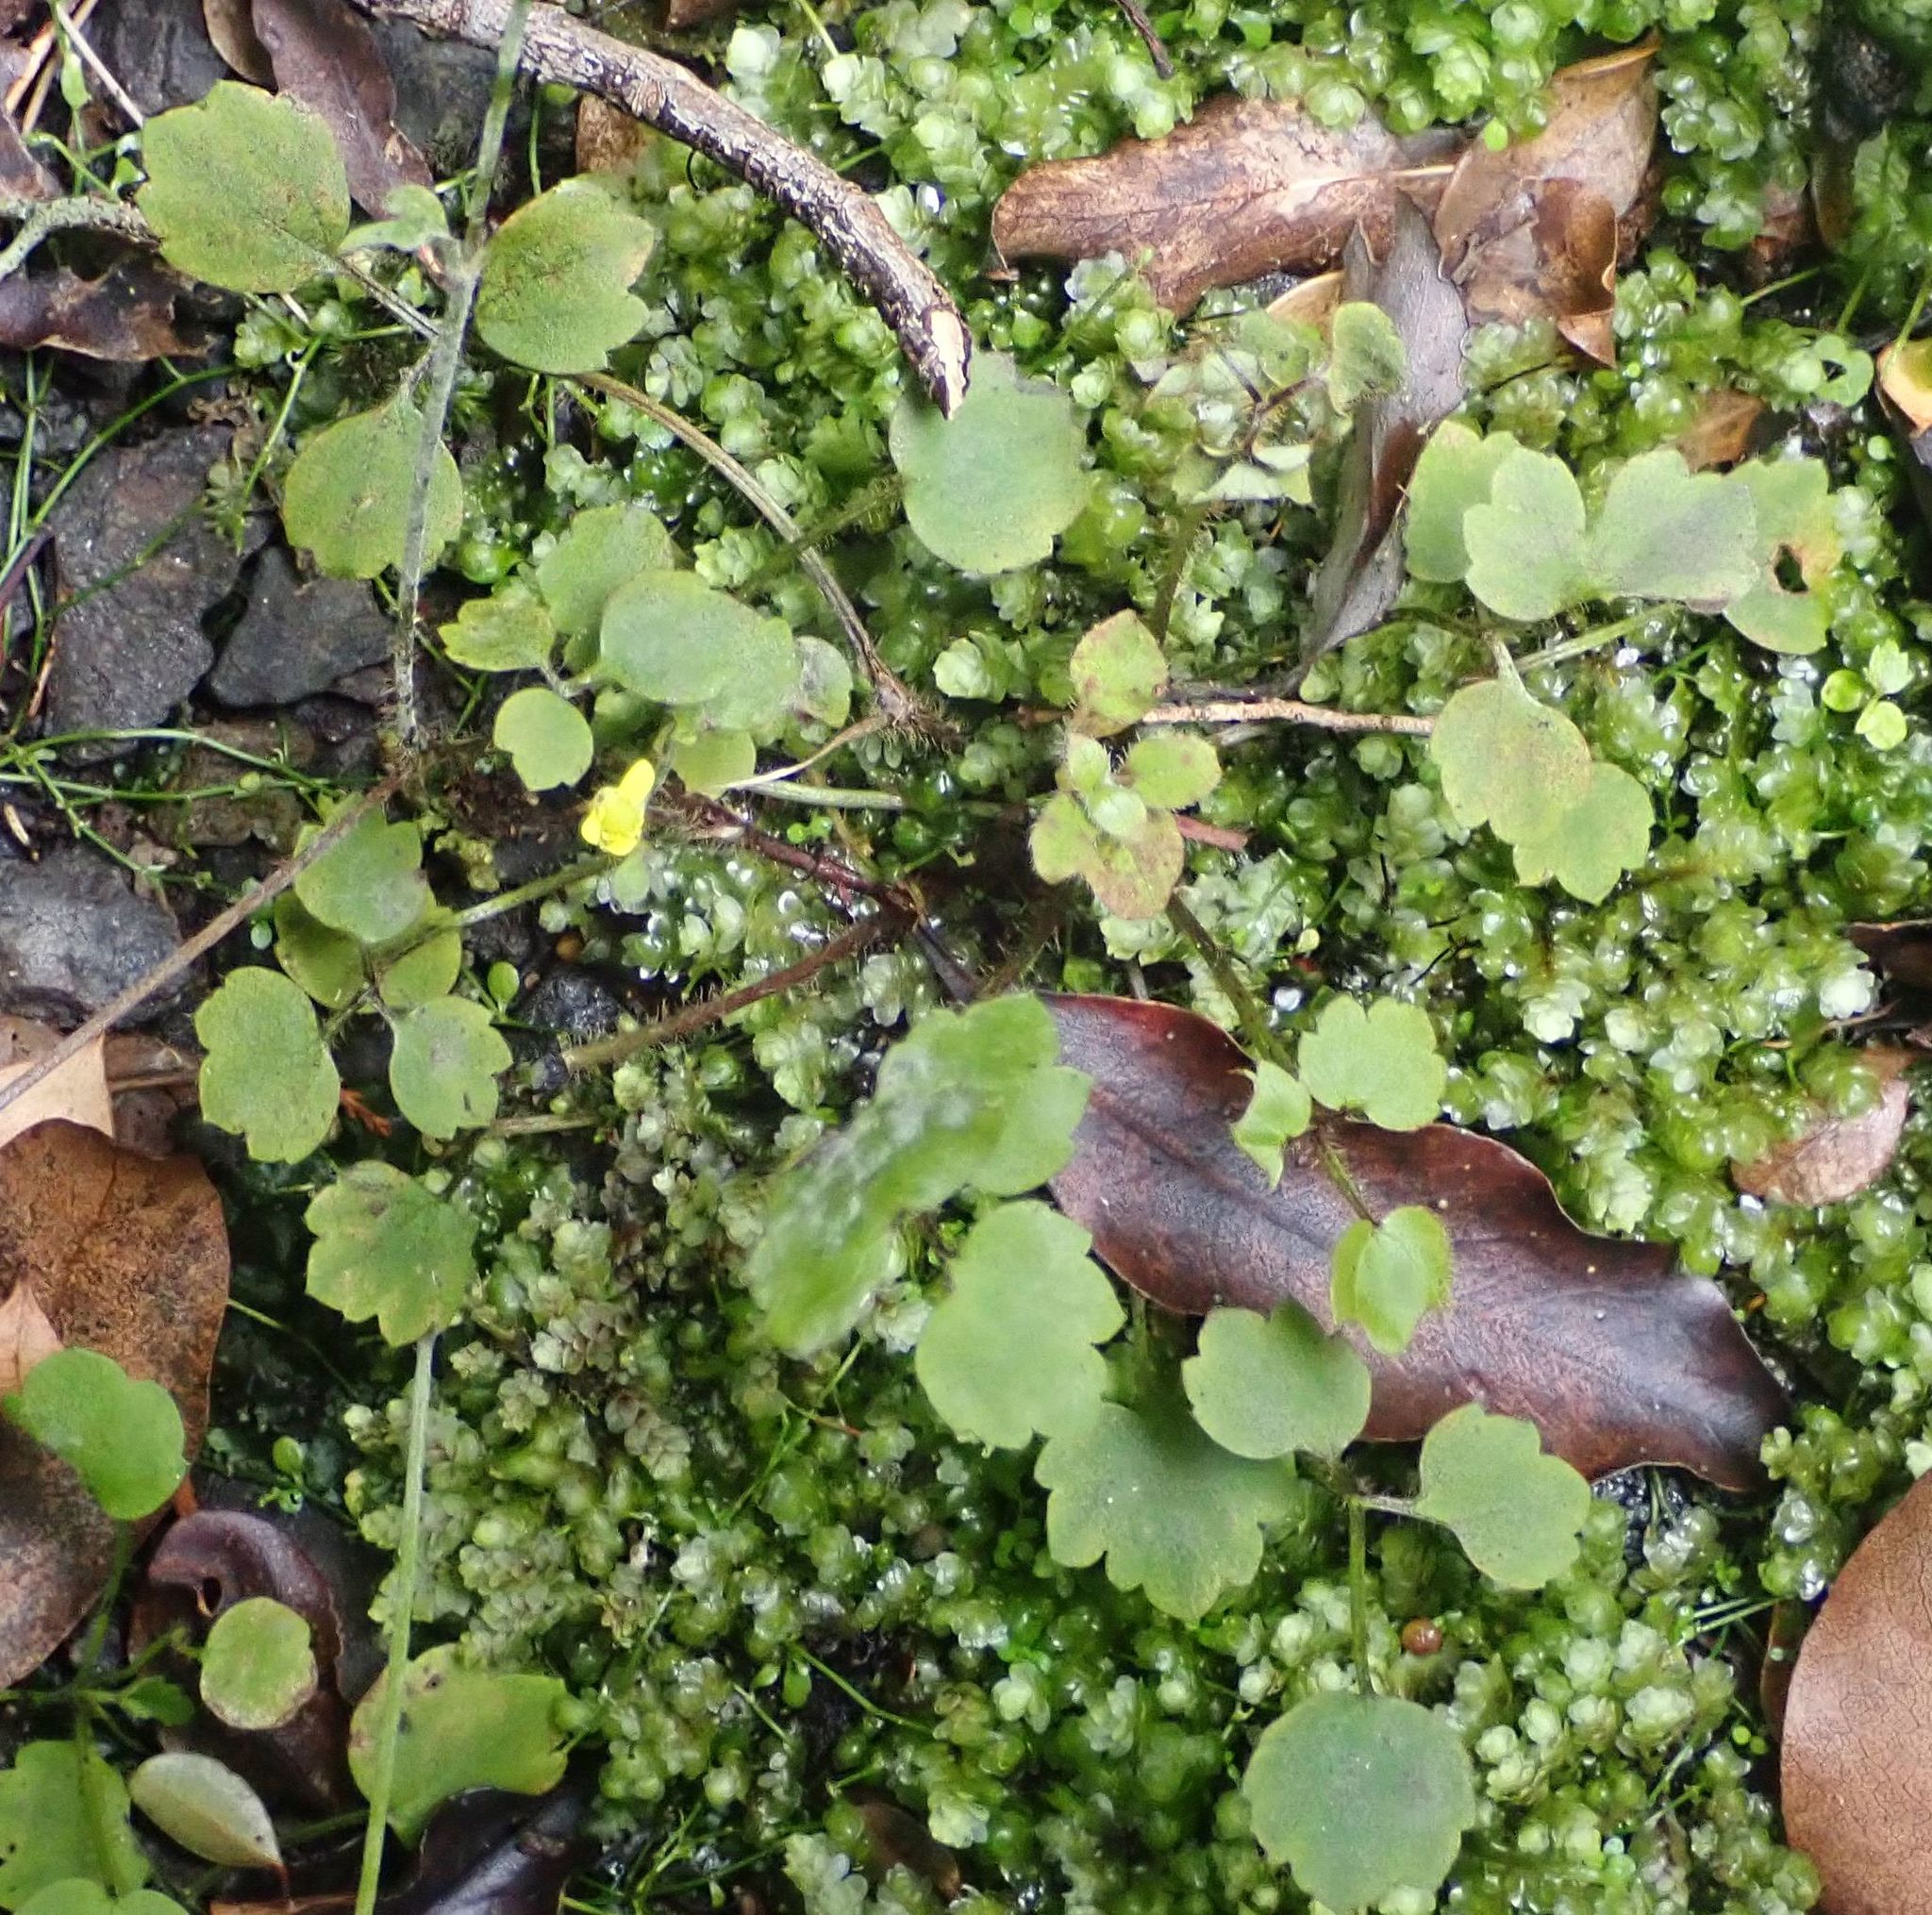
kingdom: Plantae
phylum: Tracheophyta
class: Magnoliopsida
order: Ranunculales
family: Ranunculaceae
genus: Ranunculus
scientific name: Ranunculus reflexus
